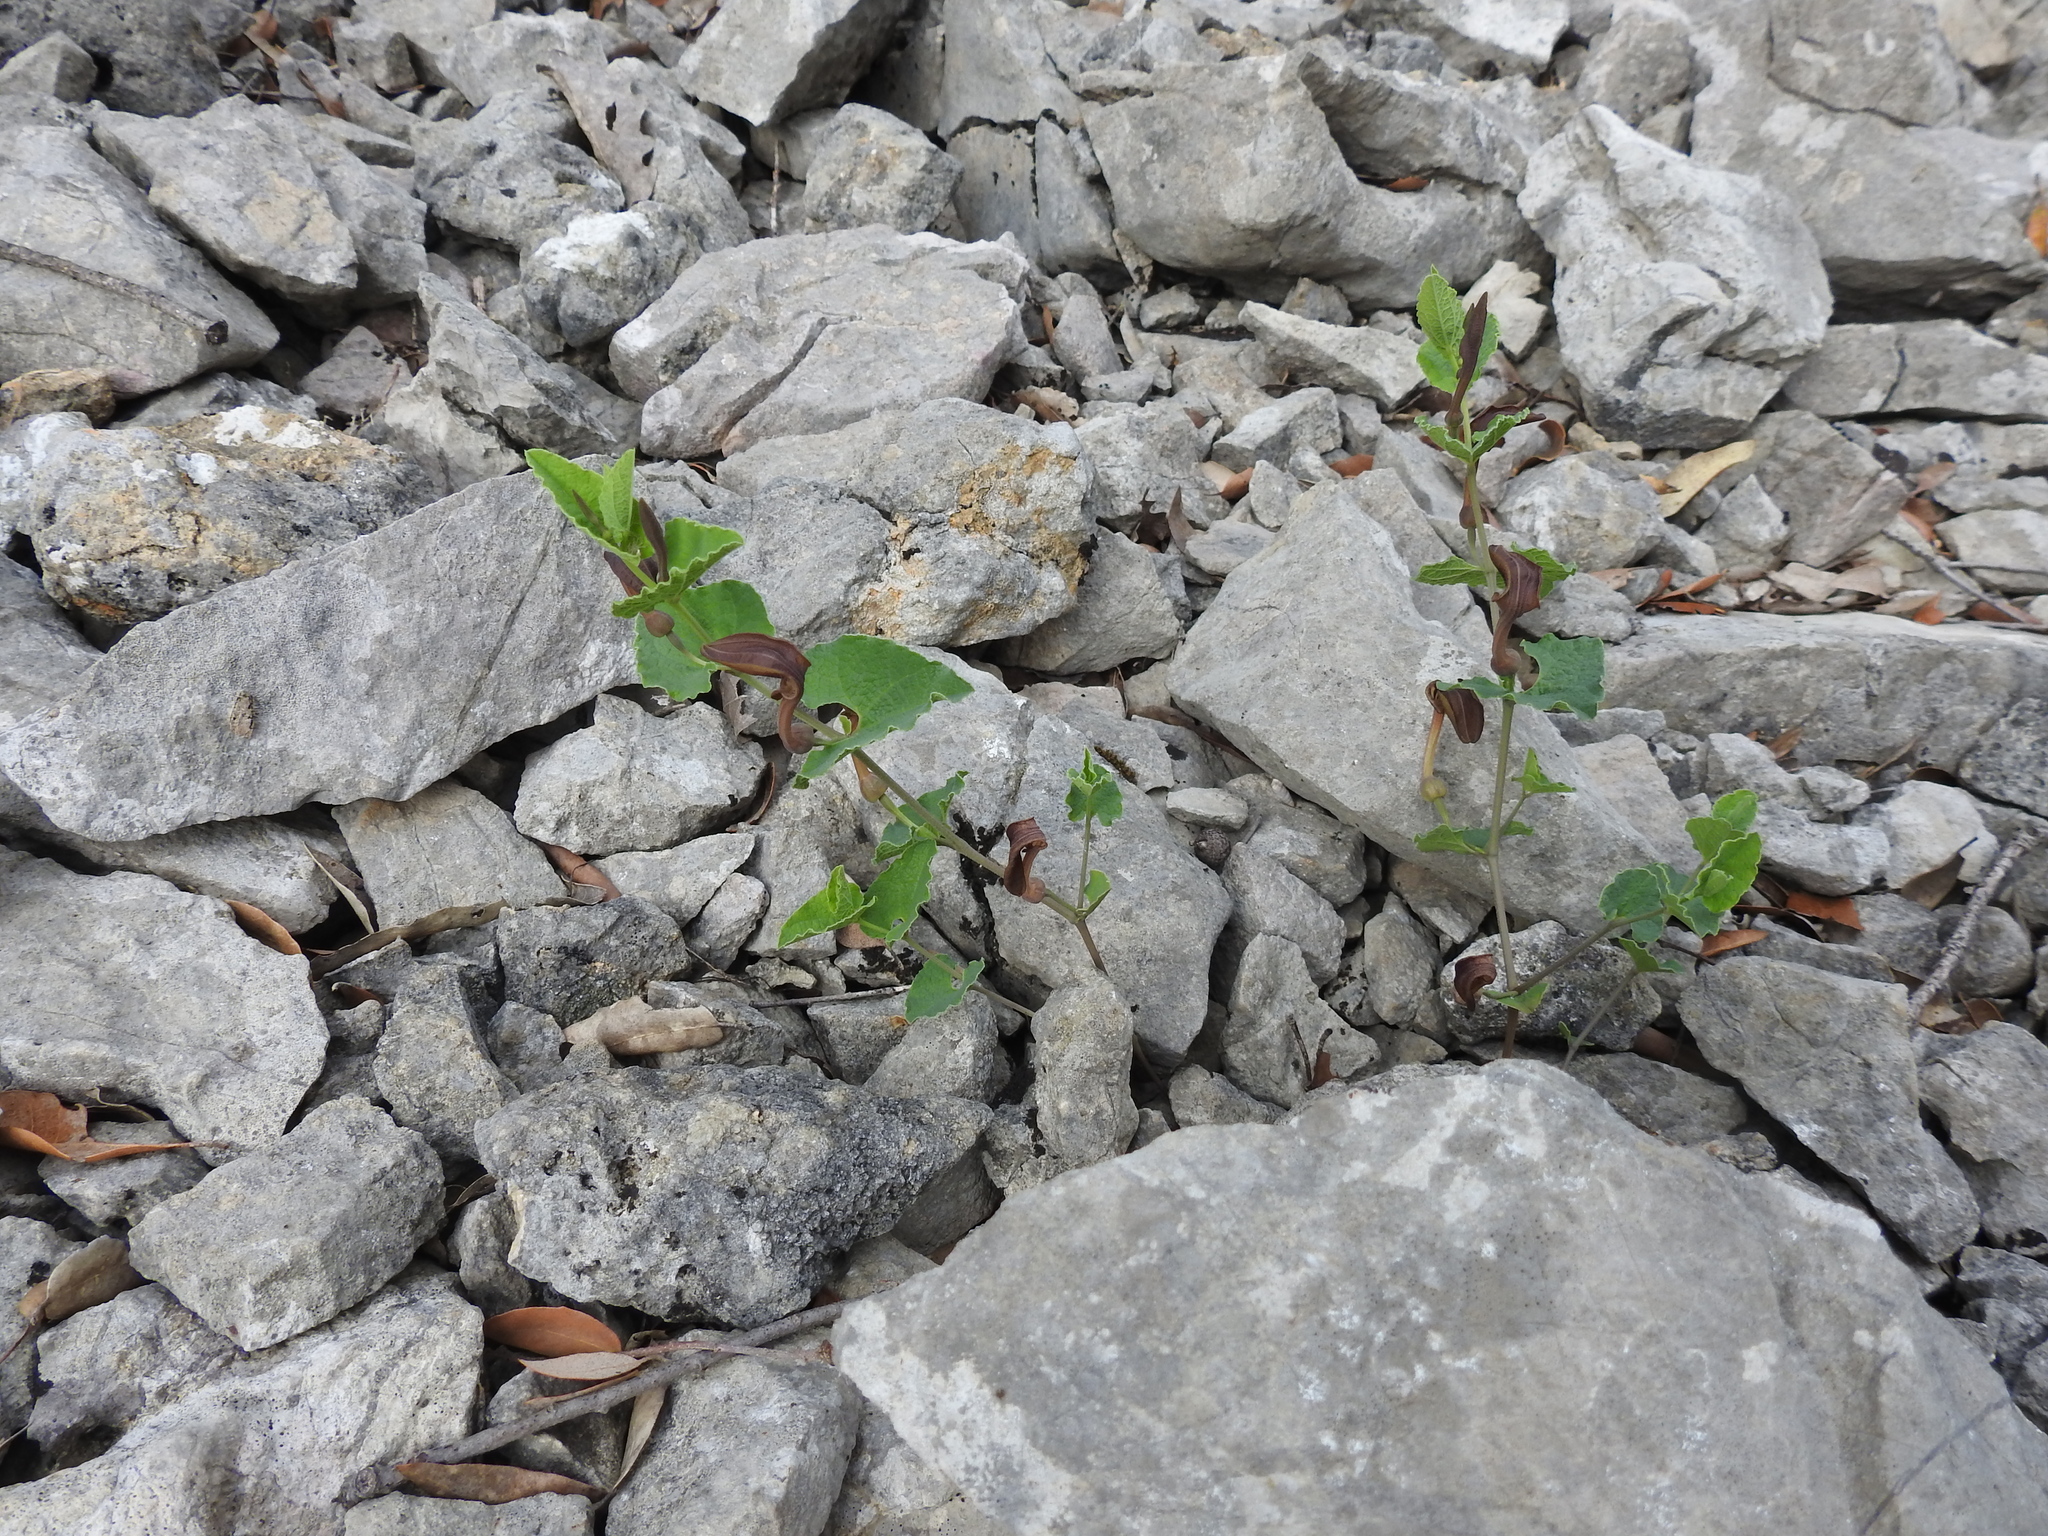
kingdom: Plantae
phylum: Tracheophyta
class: Magnoliopsida
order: Piperales
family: Aristolochiaceae
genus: Aristolochia
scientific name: Aristolochia pistolochia
